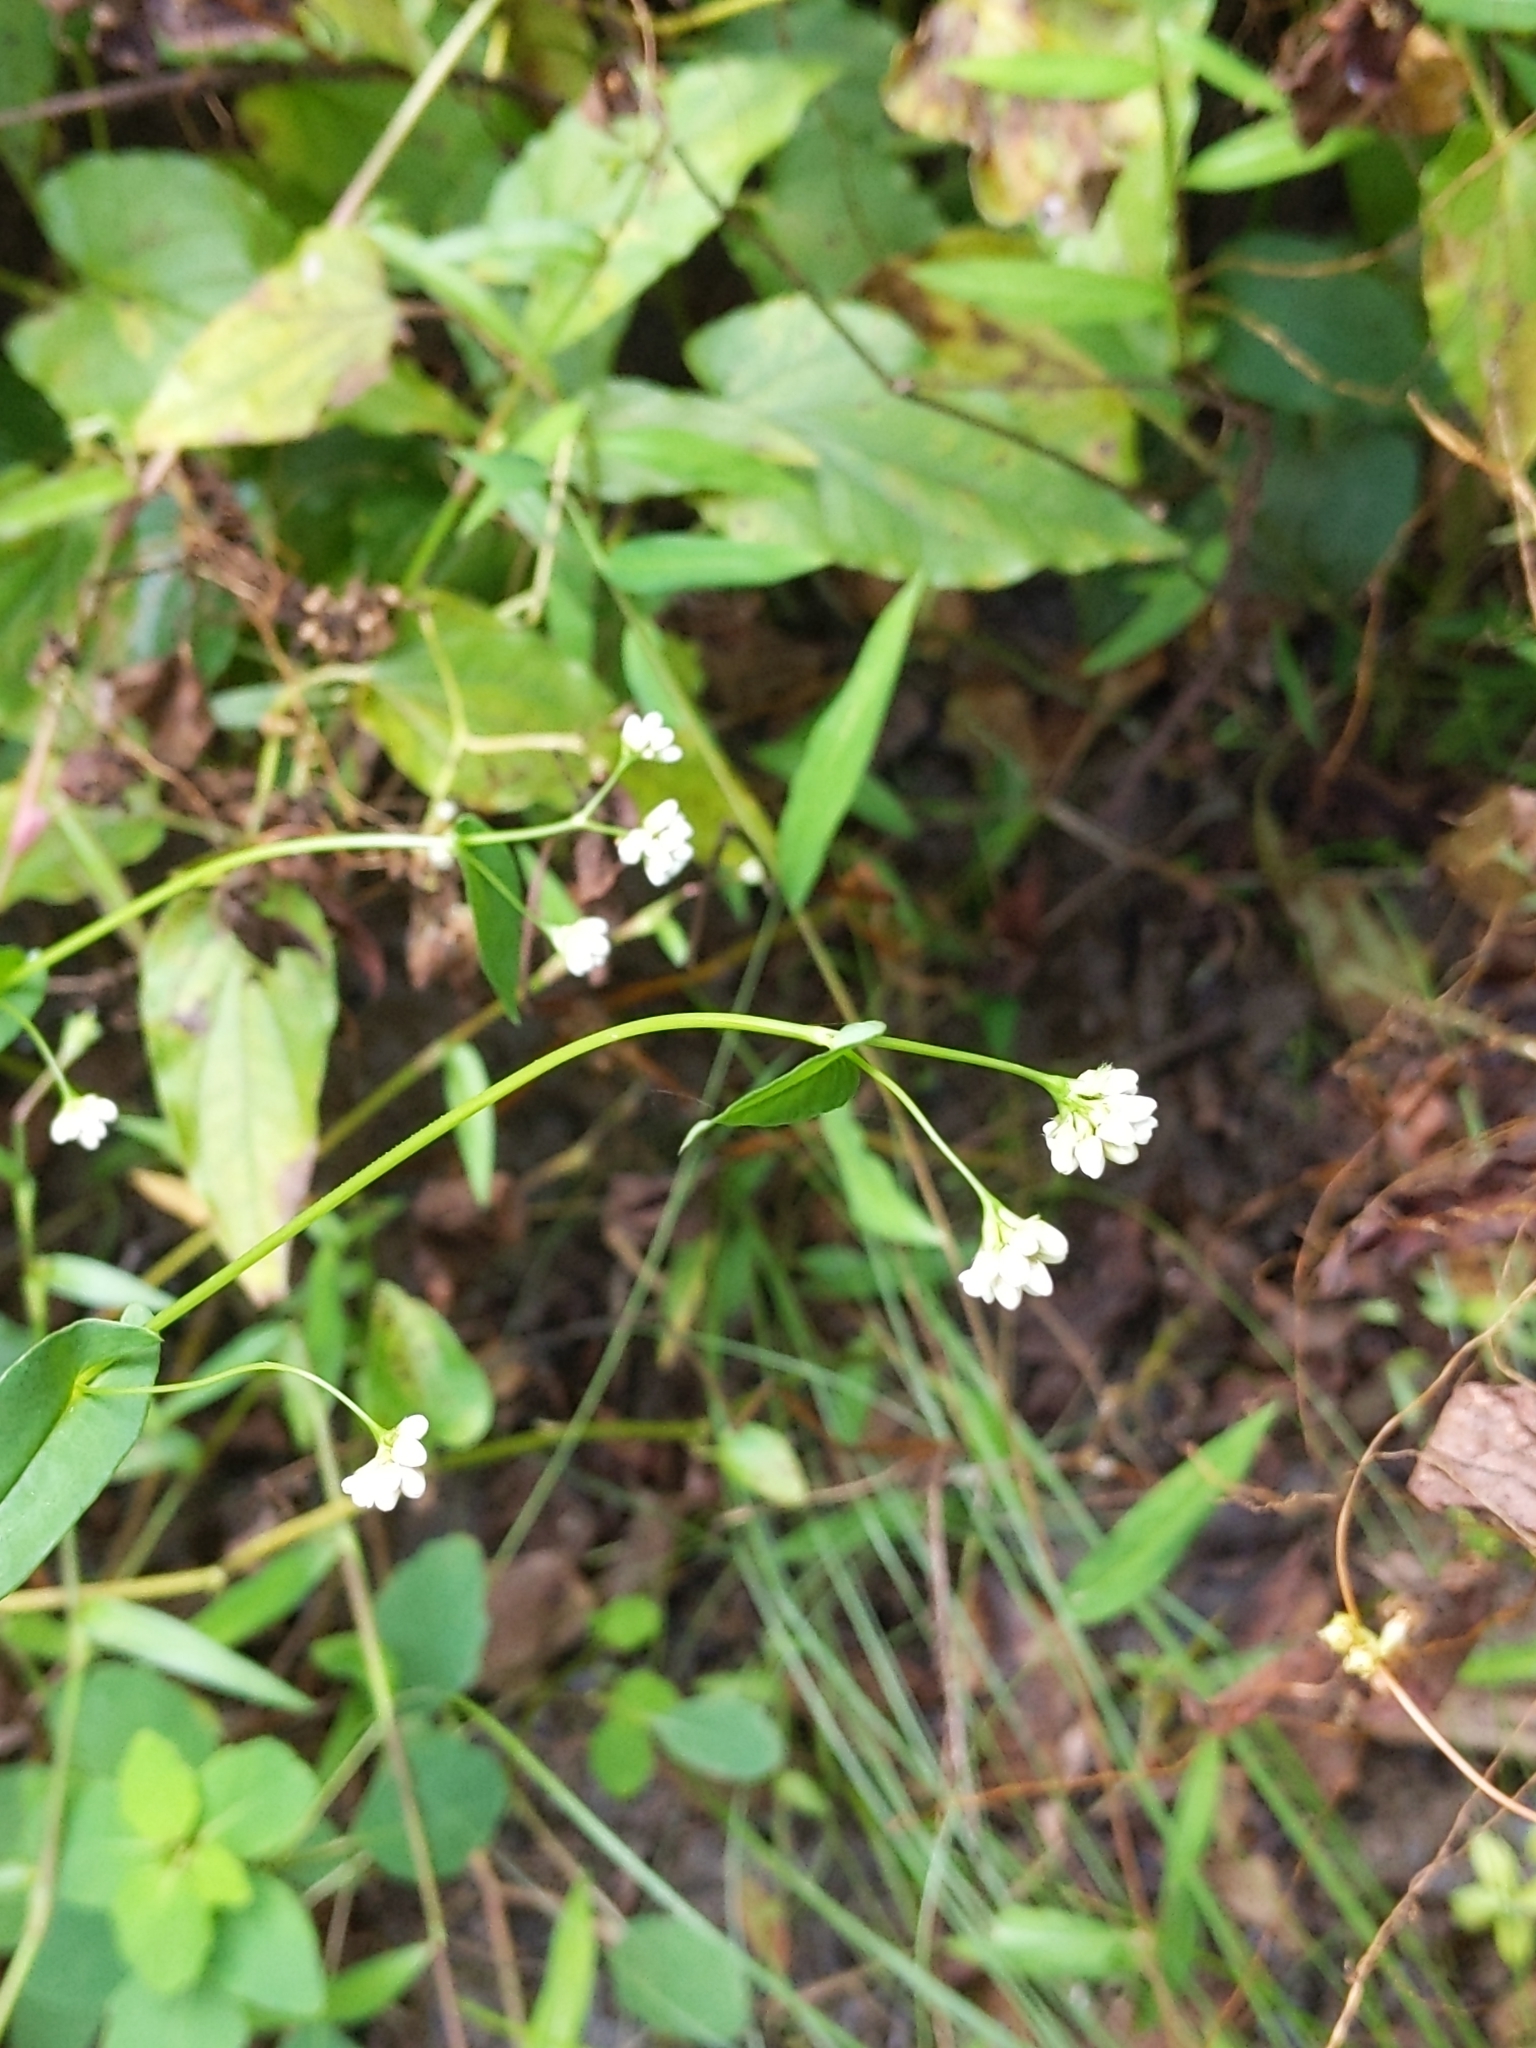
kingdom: Plantae
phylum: Tracheophyta
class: Magnoliopsida
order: Caryophyllales
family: Polygonaceae
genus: Persicaria
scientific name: Persicaria sagittata
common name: American tearthumb
